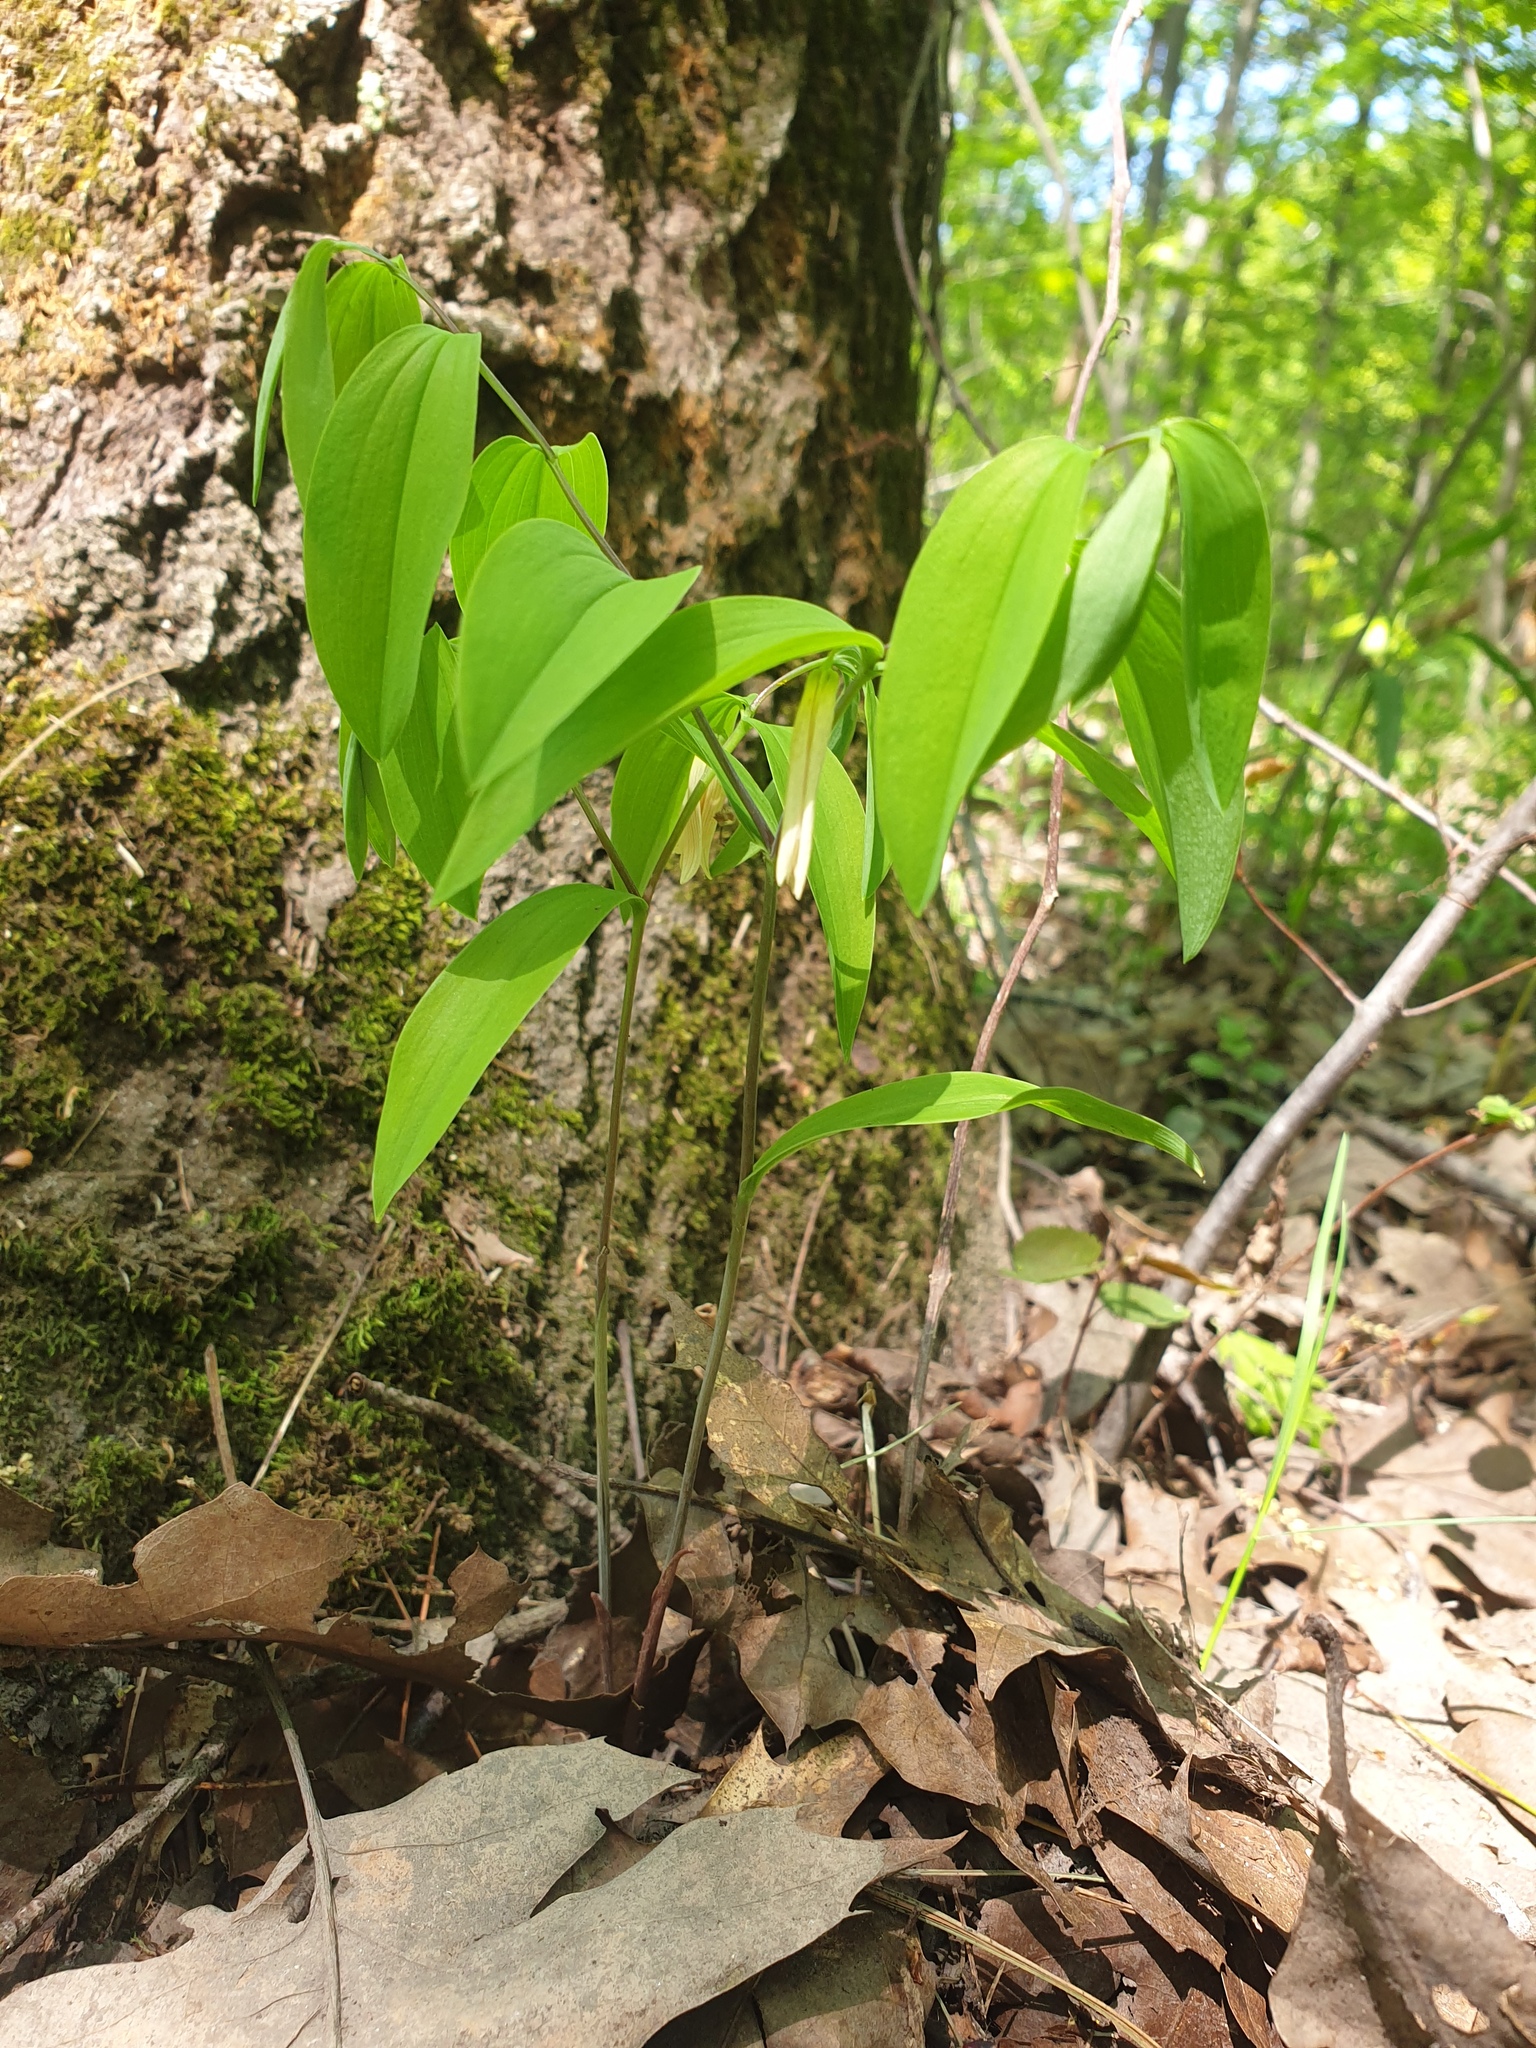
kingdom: Plantae
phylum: Tracheophyta
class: Liliopsida
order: Liliales
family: Colchicaceae
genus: Uvularia
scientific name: Uvularia sessilifolia
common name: Straw-lily
